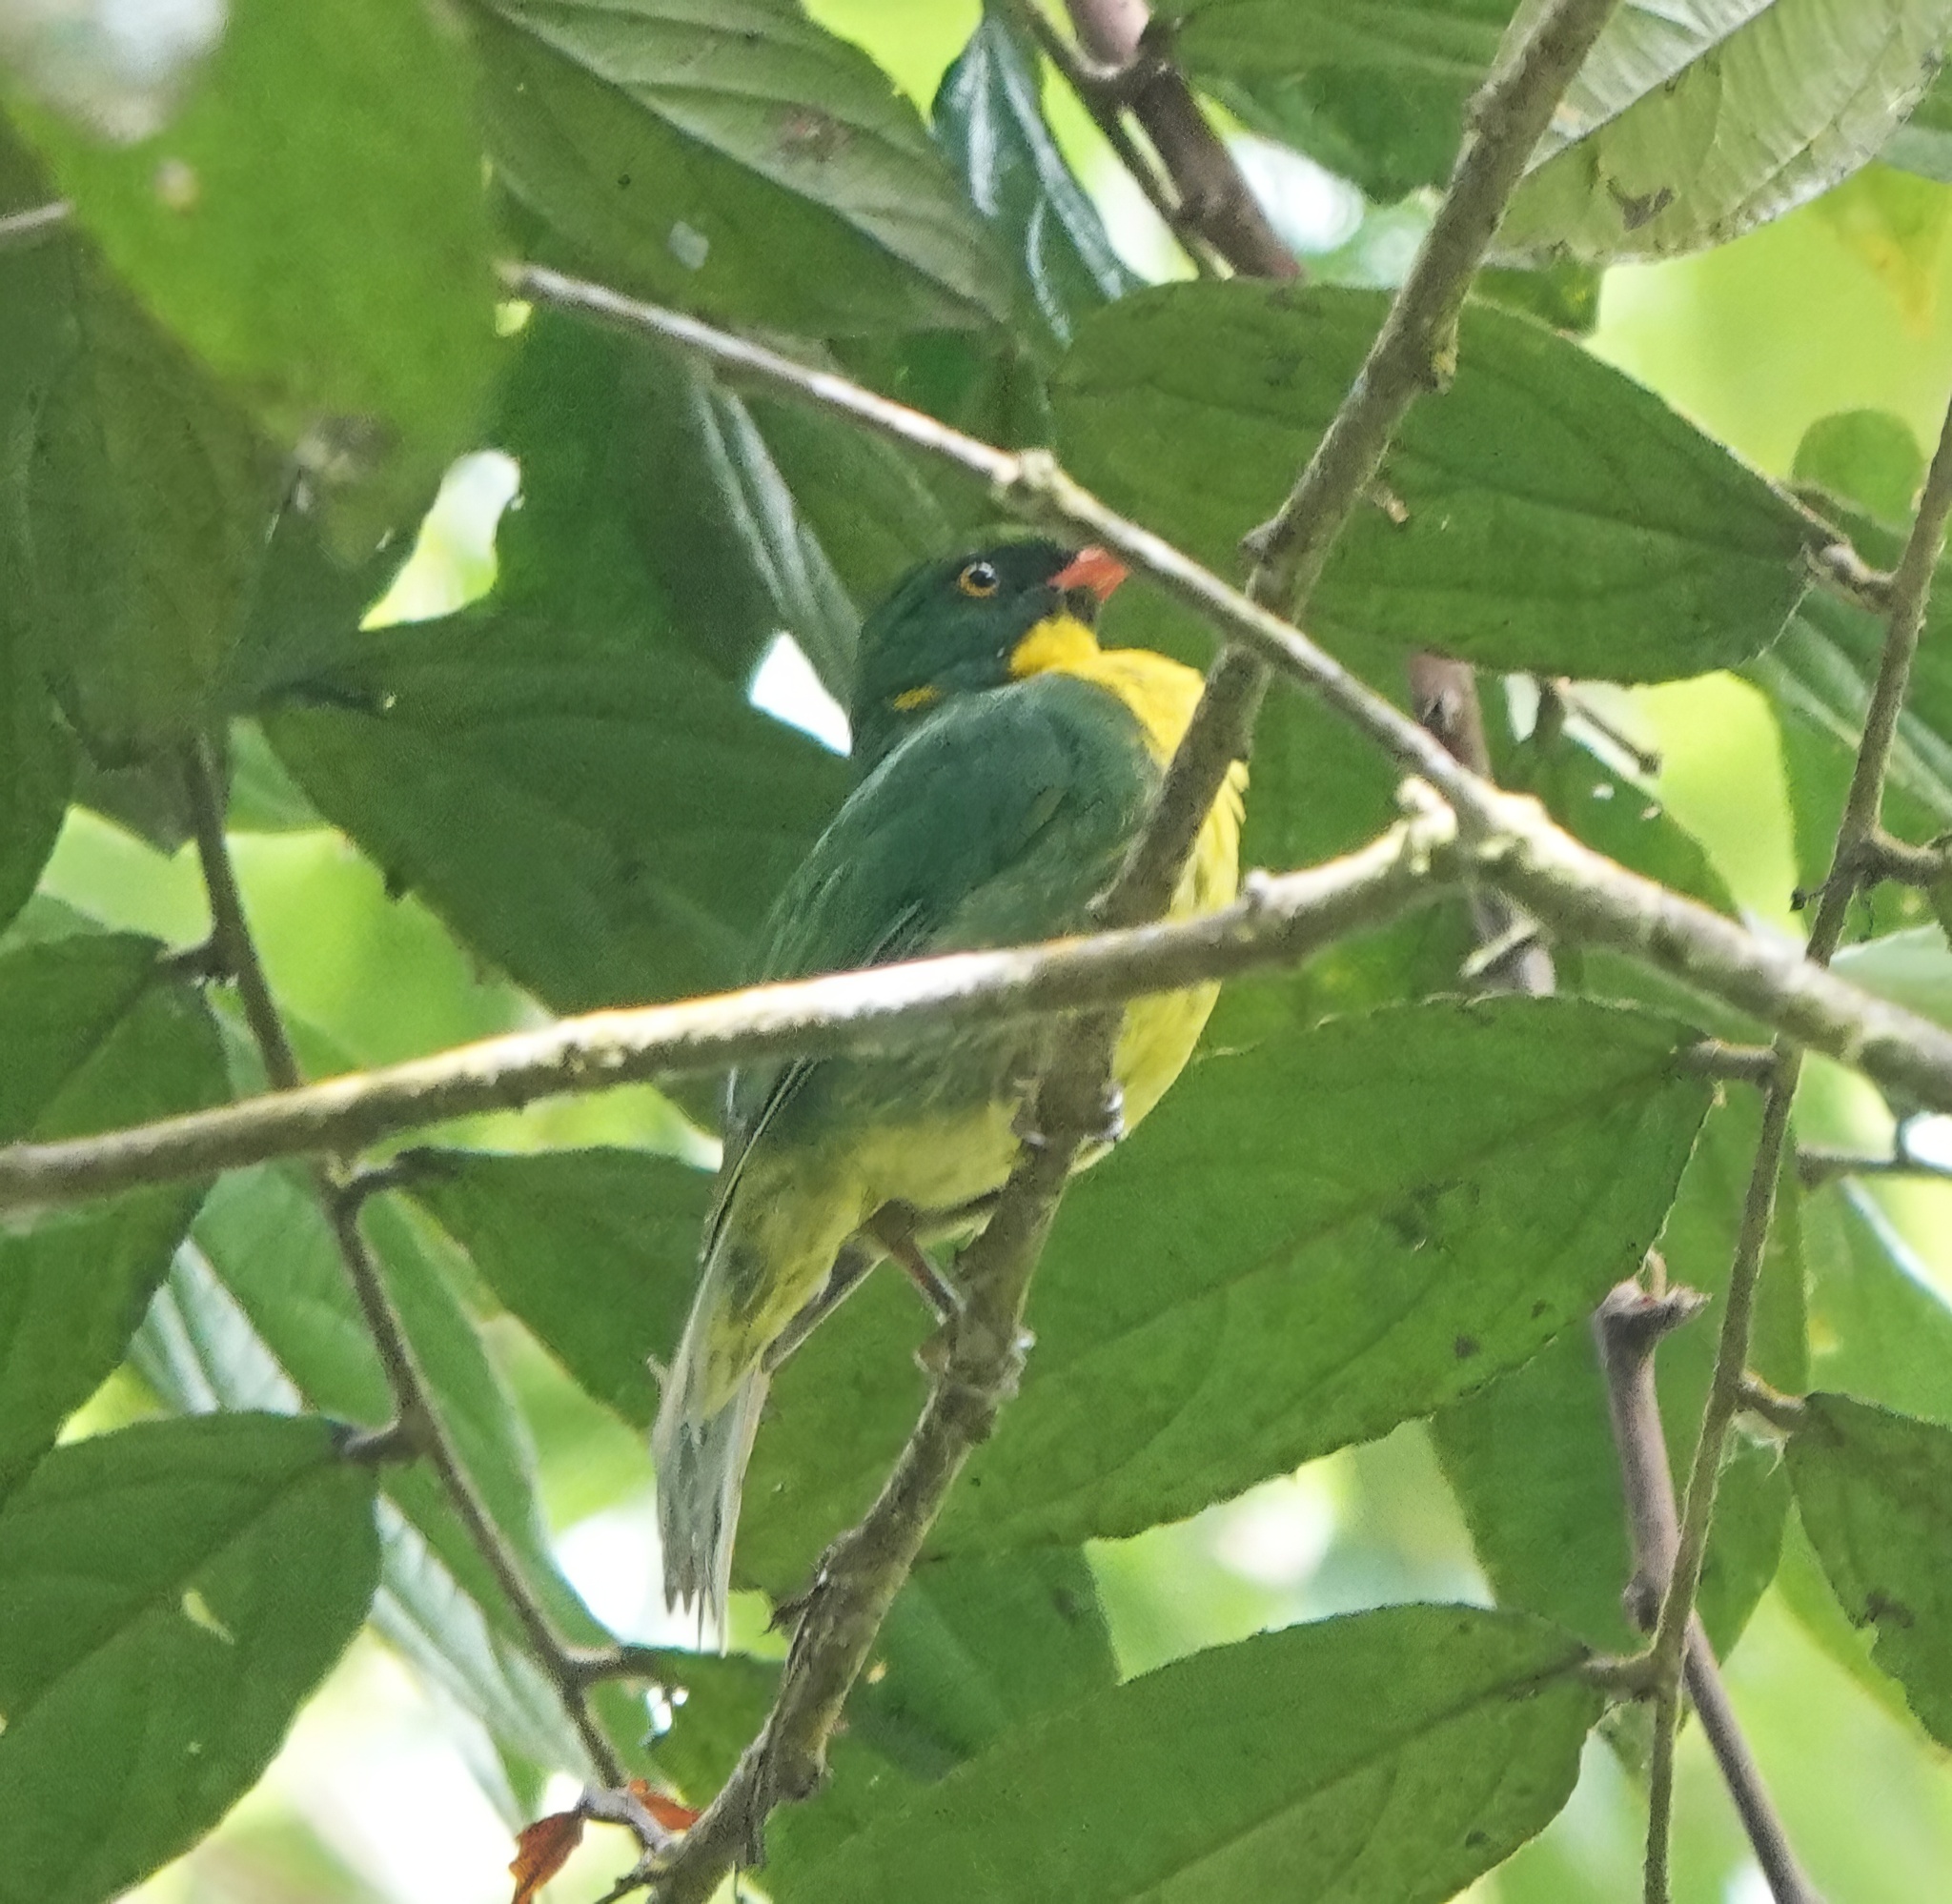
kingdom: Animalia
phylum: Chordata
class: Aves
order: Passeriformes
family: Cotingidae
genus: Pipreola
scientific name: Pipreola aureopectus
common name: Golden-breasted fruiteater
